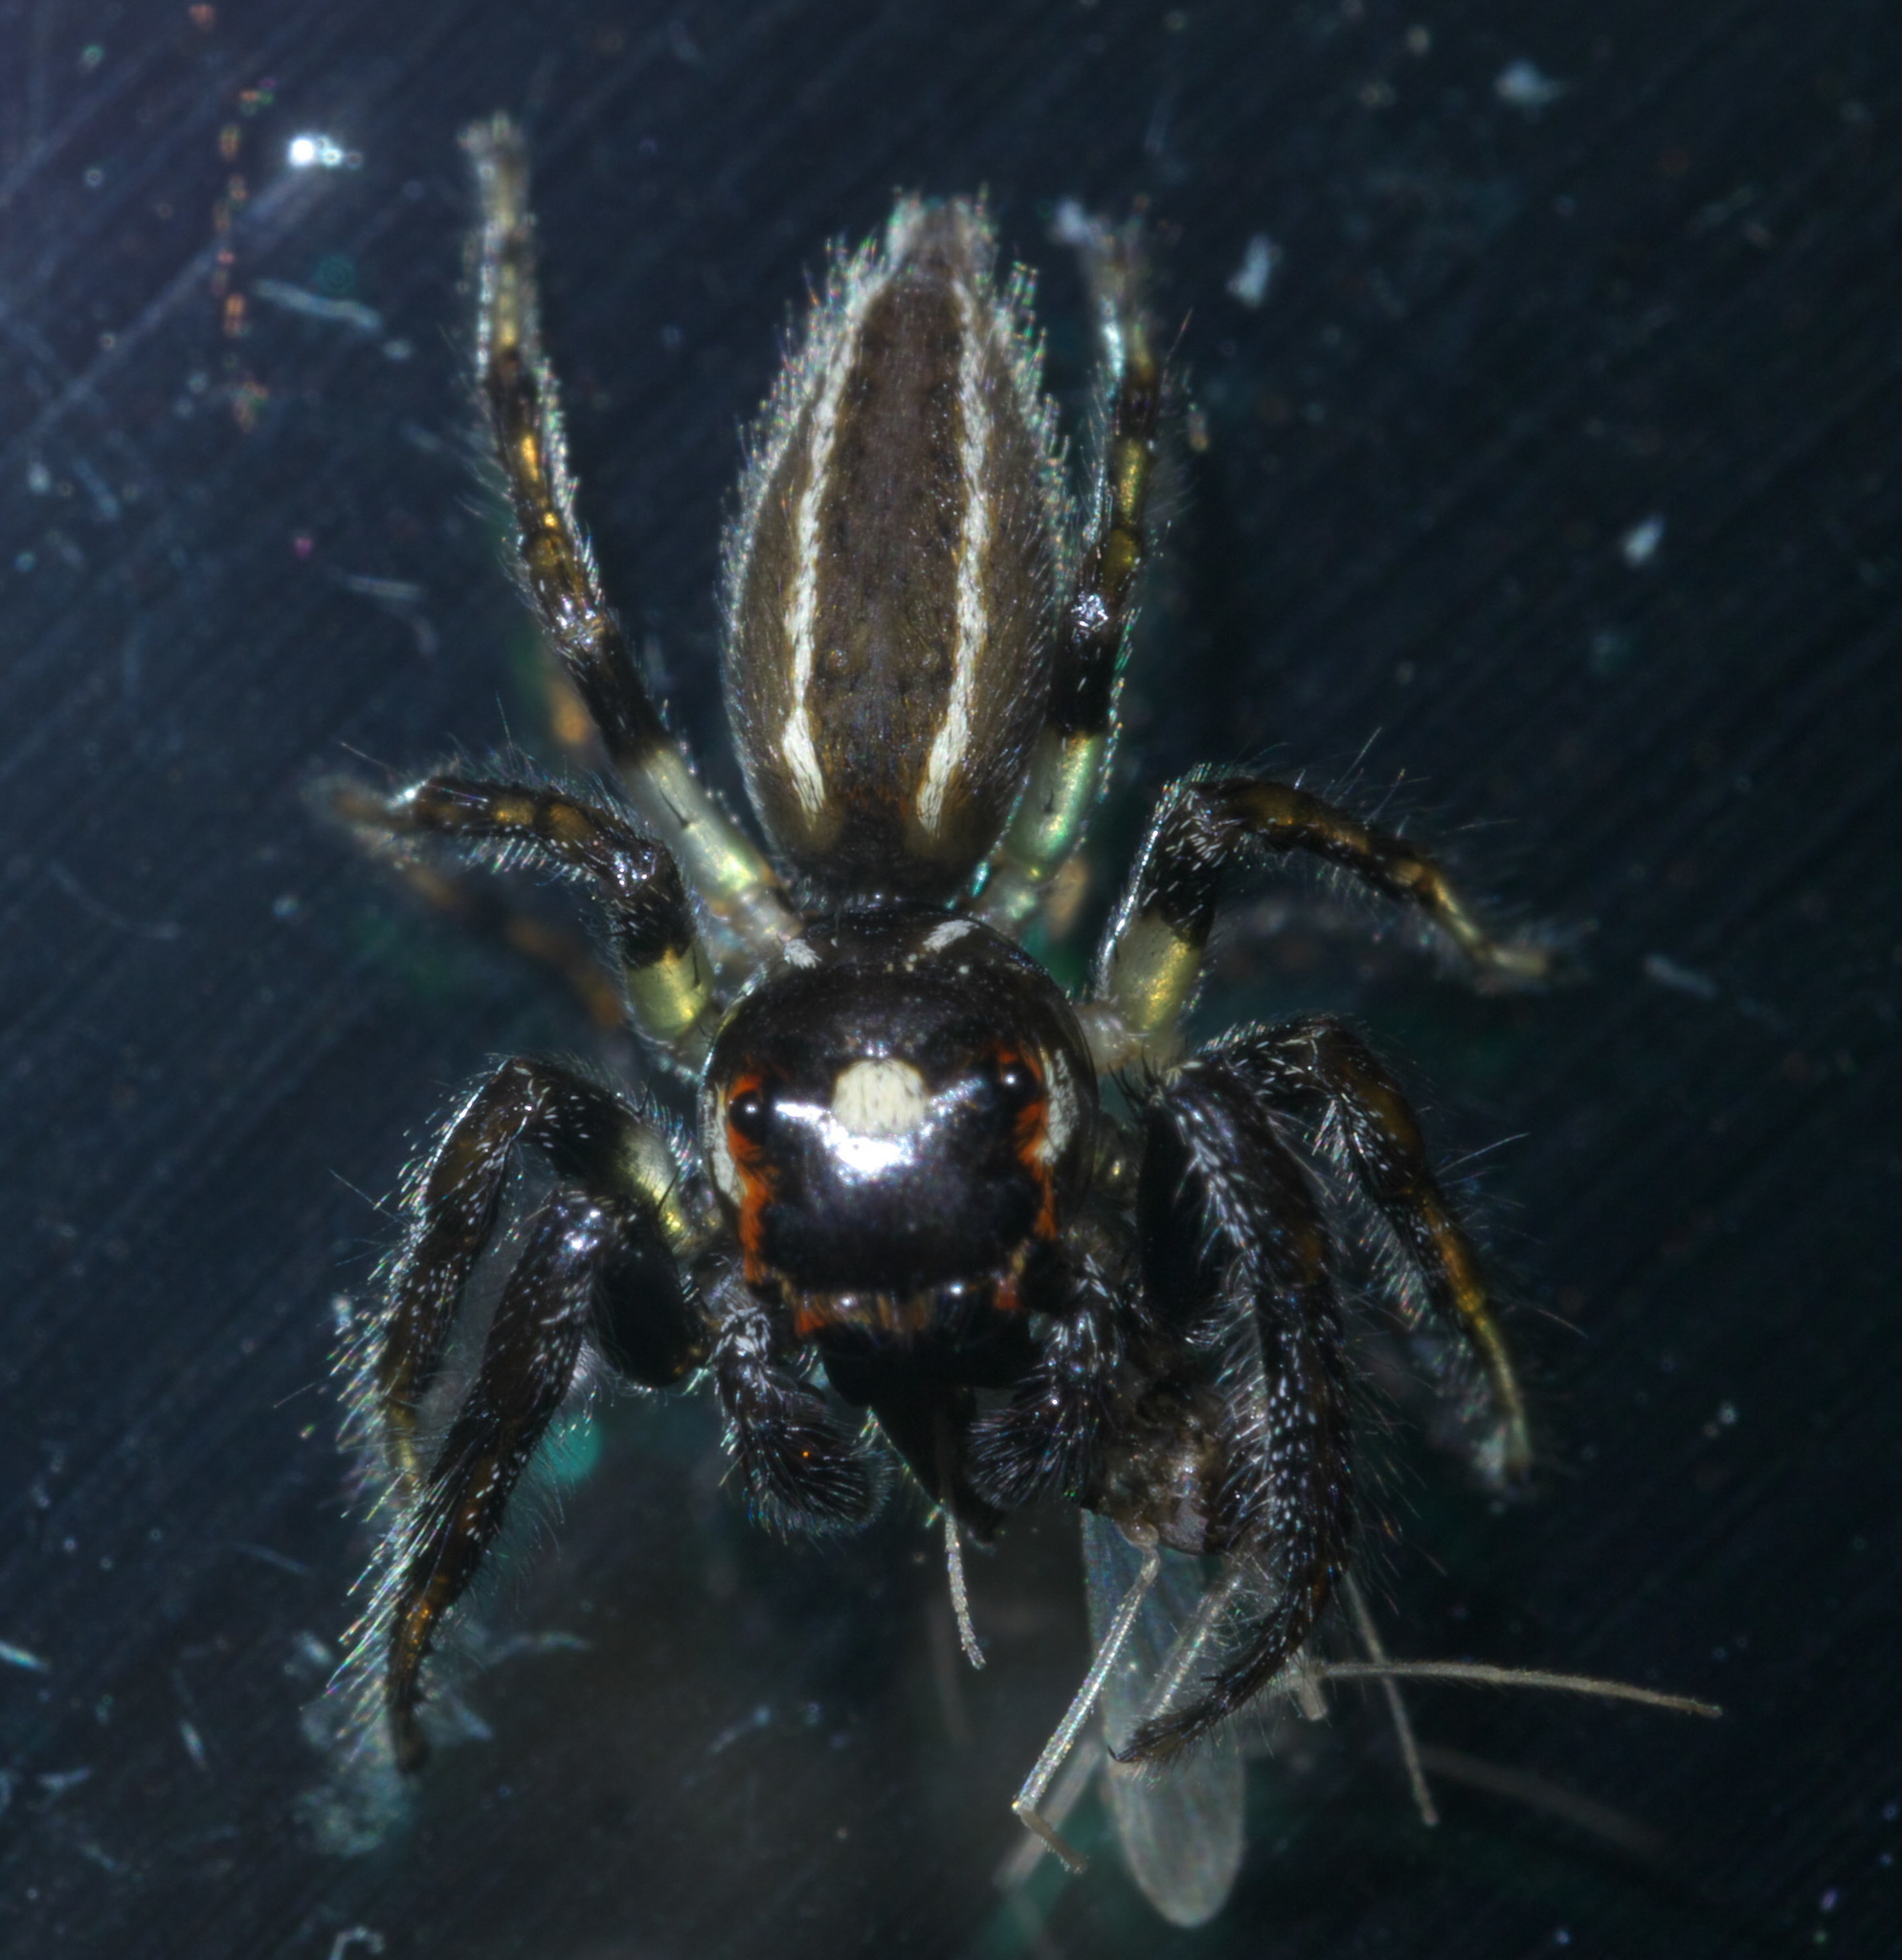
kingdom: Animalia
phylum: Arthropoda
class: Arachnida
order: Araneae
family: Salticidae
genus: Colonus
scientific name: Colonus sylvanus
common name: Jumping spiders
